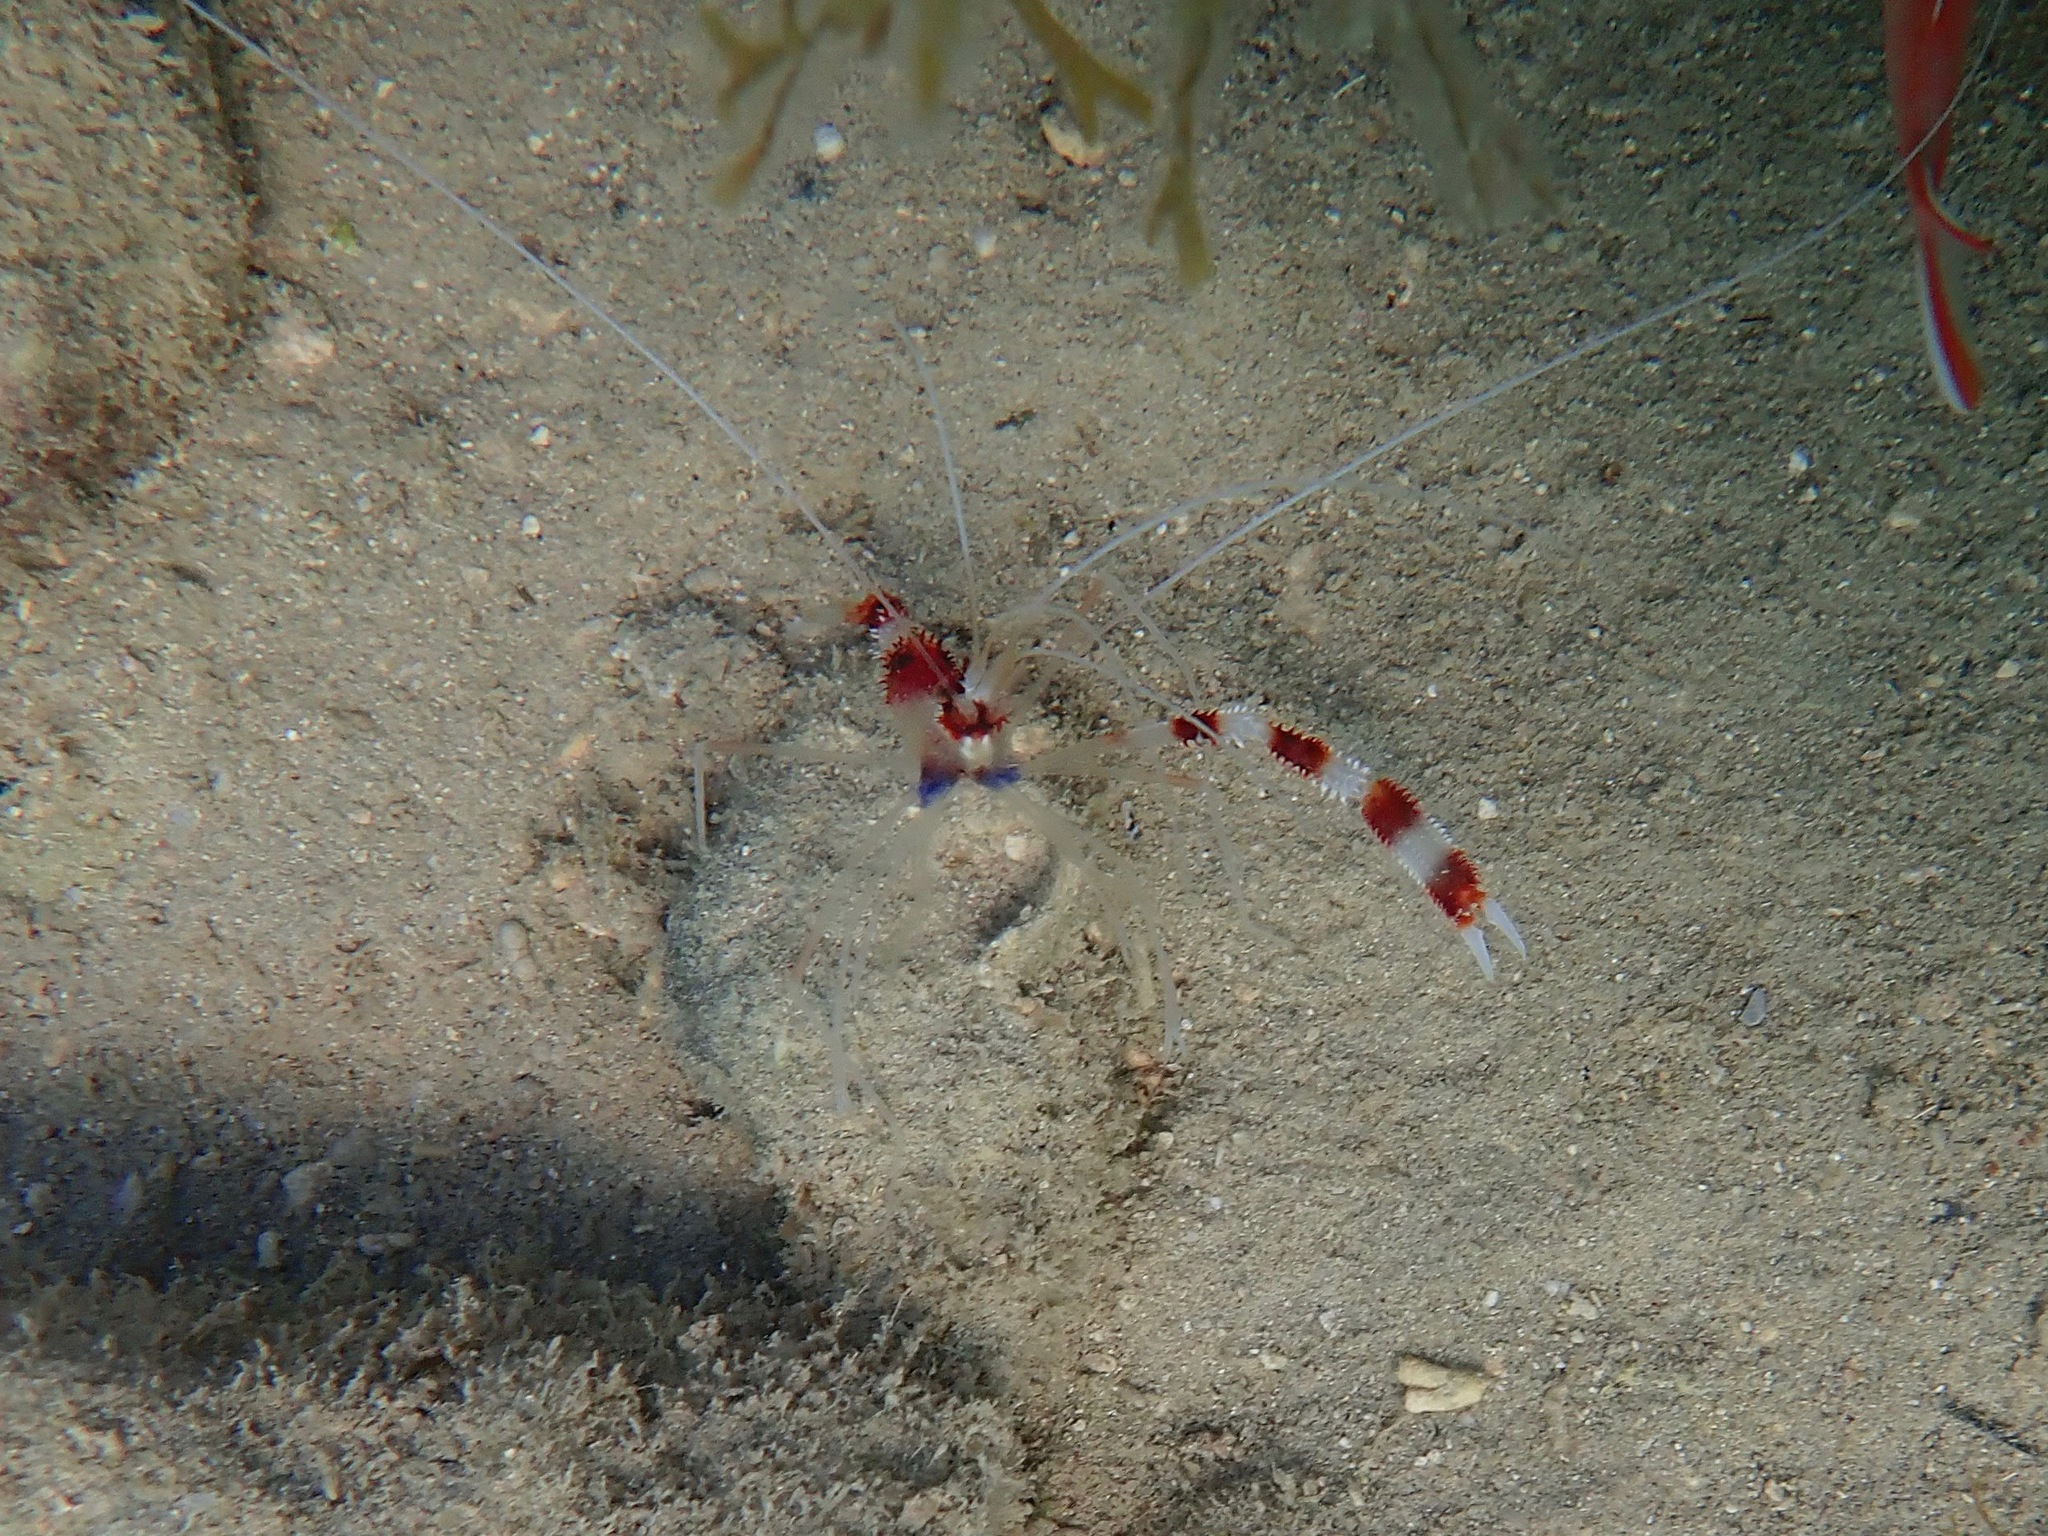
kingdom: Animalia
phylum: Arthropoda
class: Malacostraca
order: Decapoda
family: Stenopodidae
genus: Stenopus
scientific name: Stenopus hispidus
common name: Banded coral shrimp
